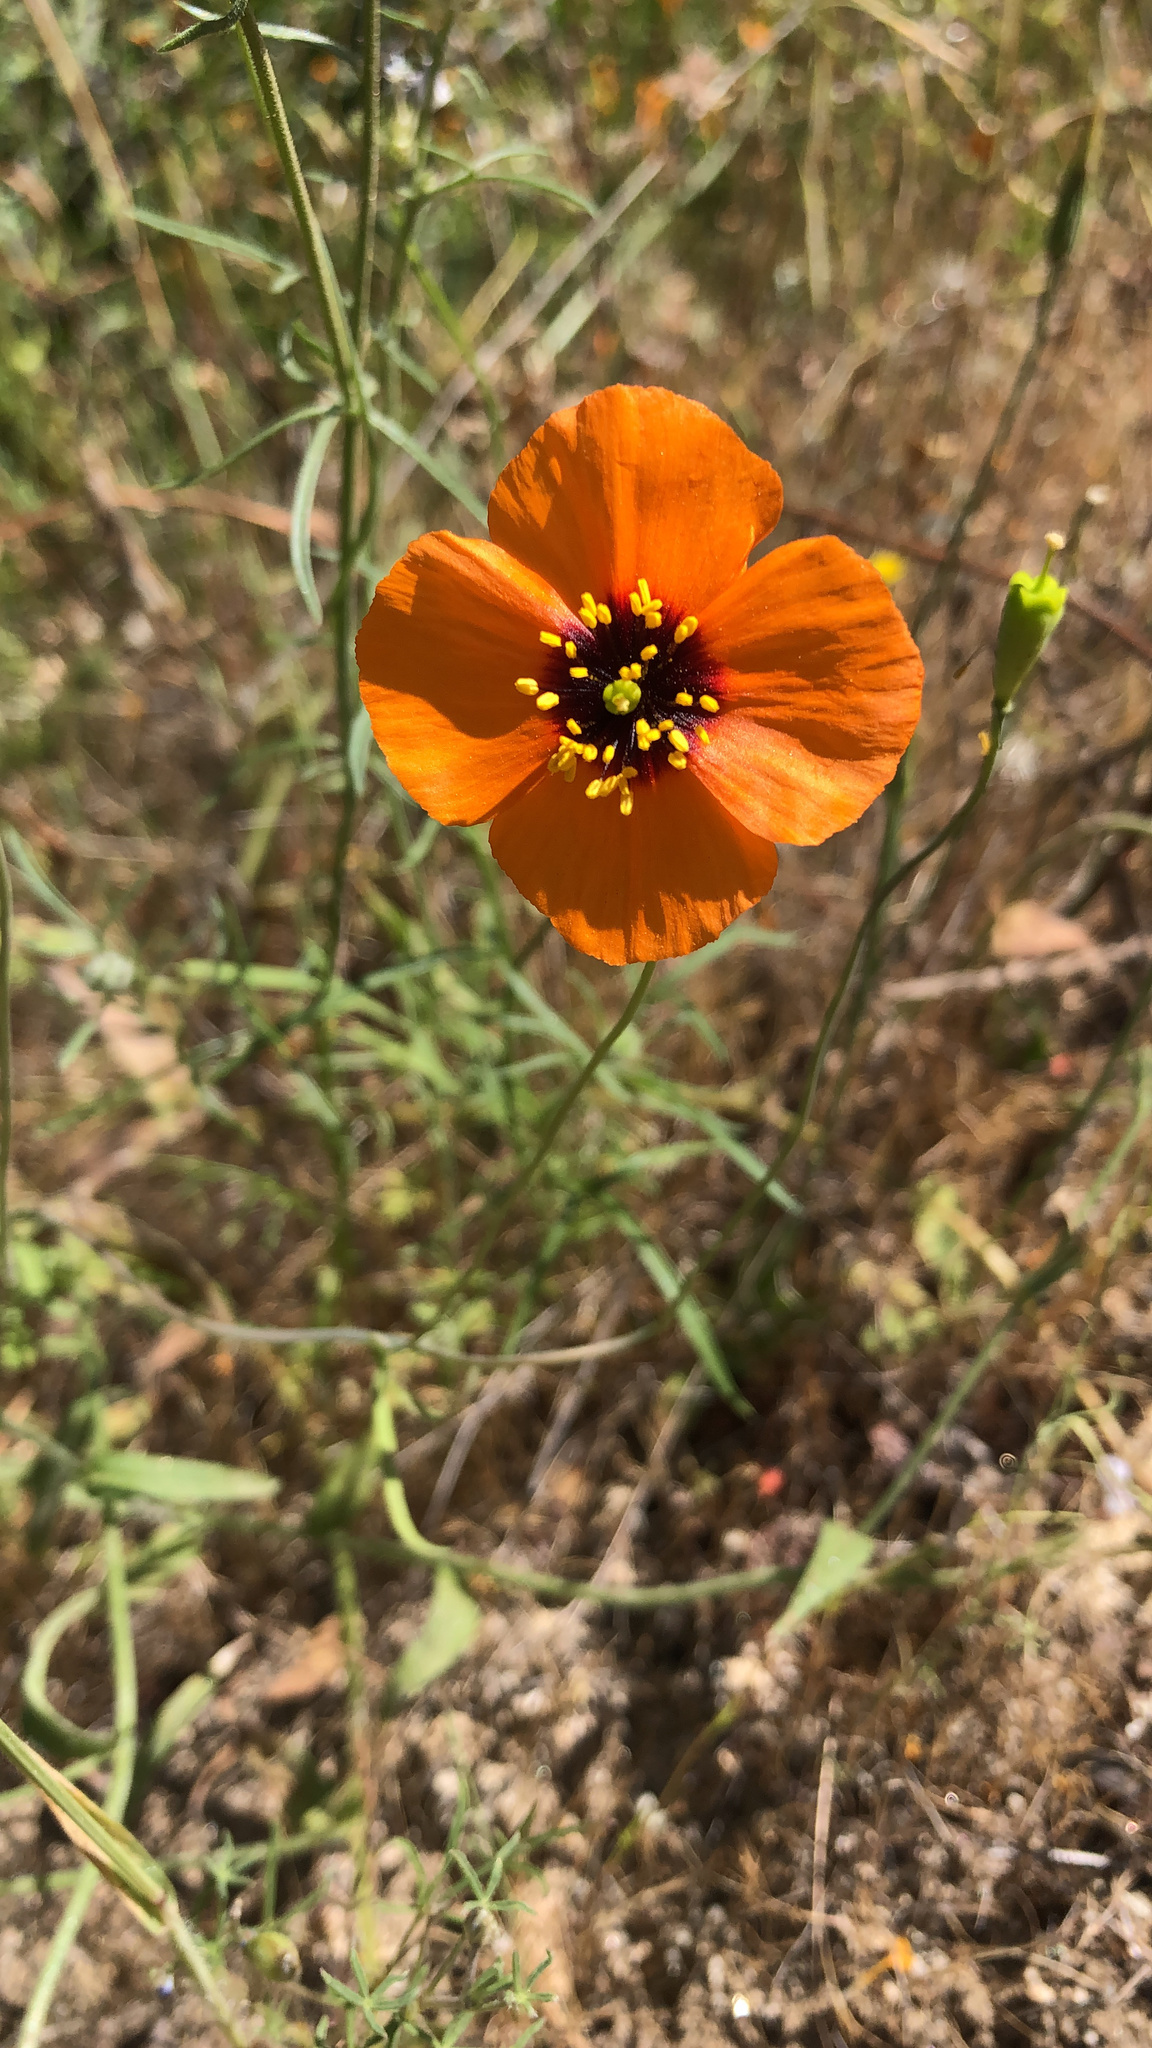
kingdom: Plantae
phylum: Tracheophyta
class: Magnoliopsida
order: Ranunculales
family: Papaveraceae
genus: Stylomecon
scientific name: Stylomecon heterophylla
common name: Flaming-poppy
